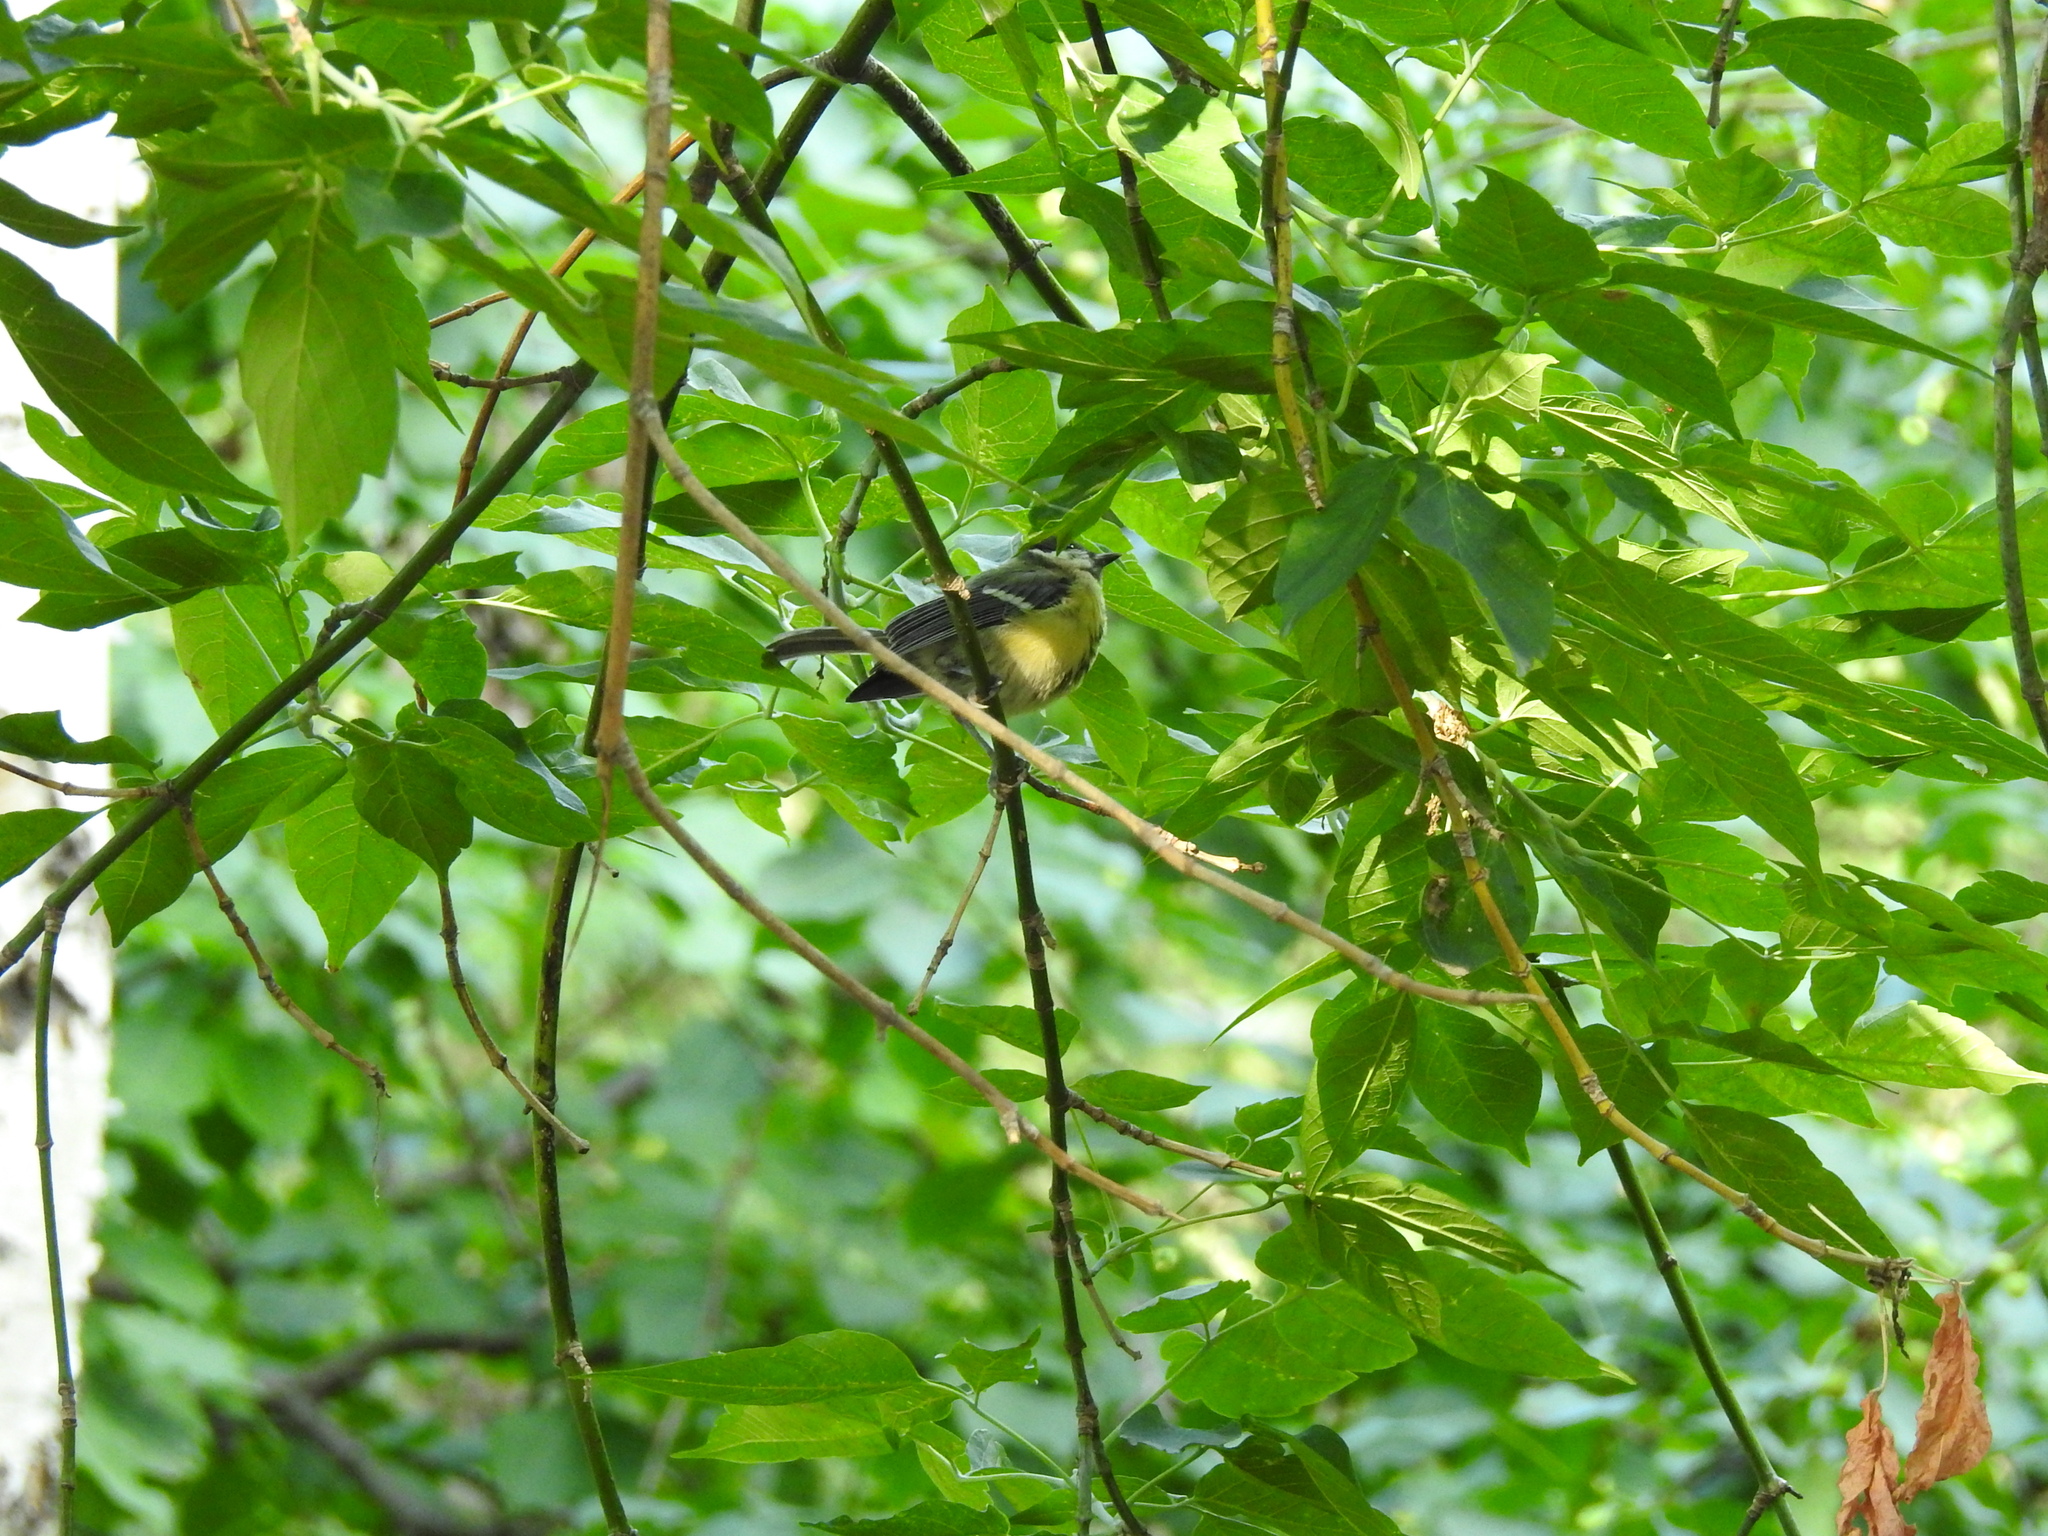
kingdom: Animalia
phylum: Chordata
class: Aves
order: Passeriformes
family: Paridae
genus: Parus
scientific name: Parus major
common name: Great tit
